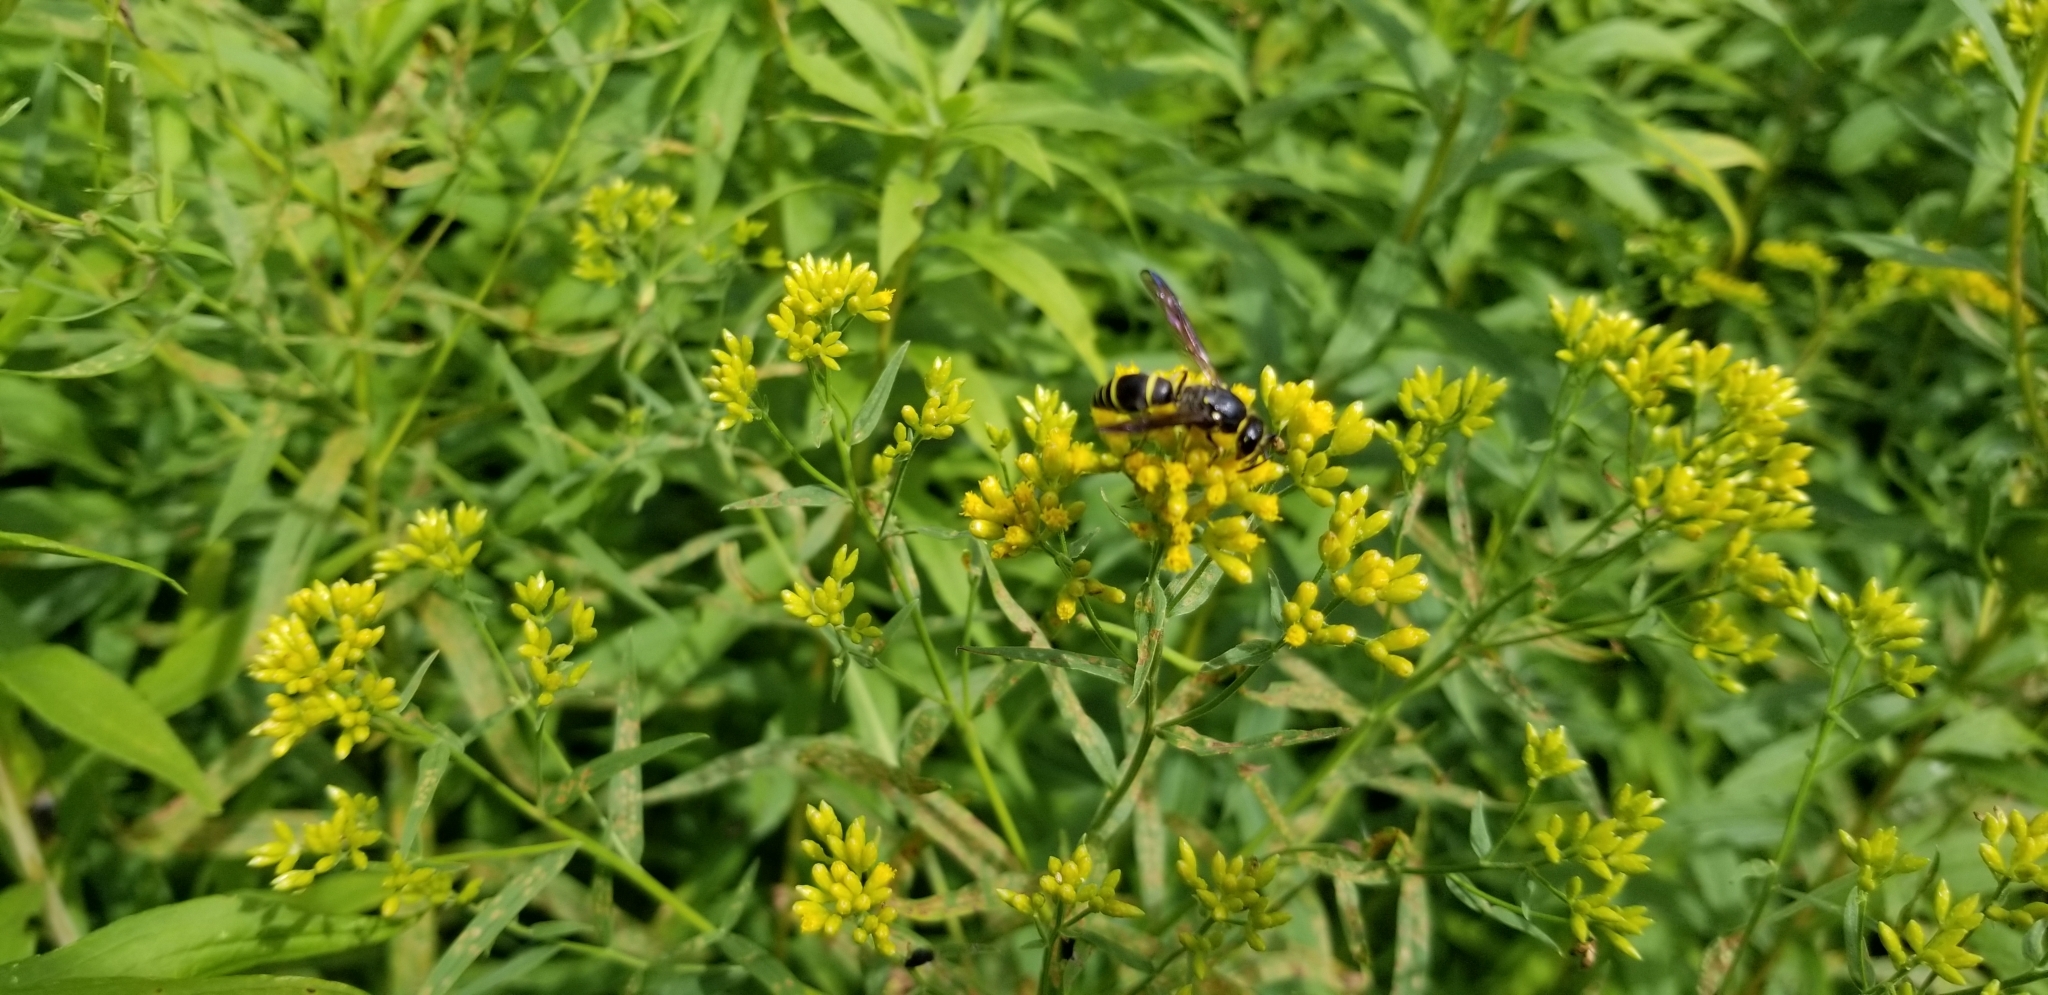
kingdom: Animalia
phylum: Arthropoda
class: Insecta
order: Hymenoptera
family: Vespidae
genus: Ancistrocerus
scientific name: Ancistrocerus
